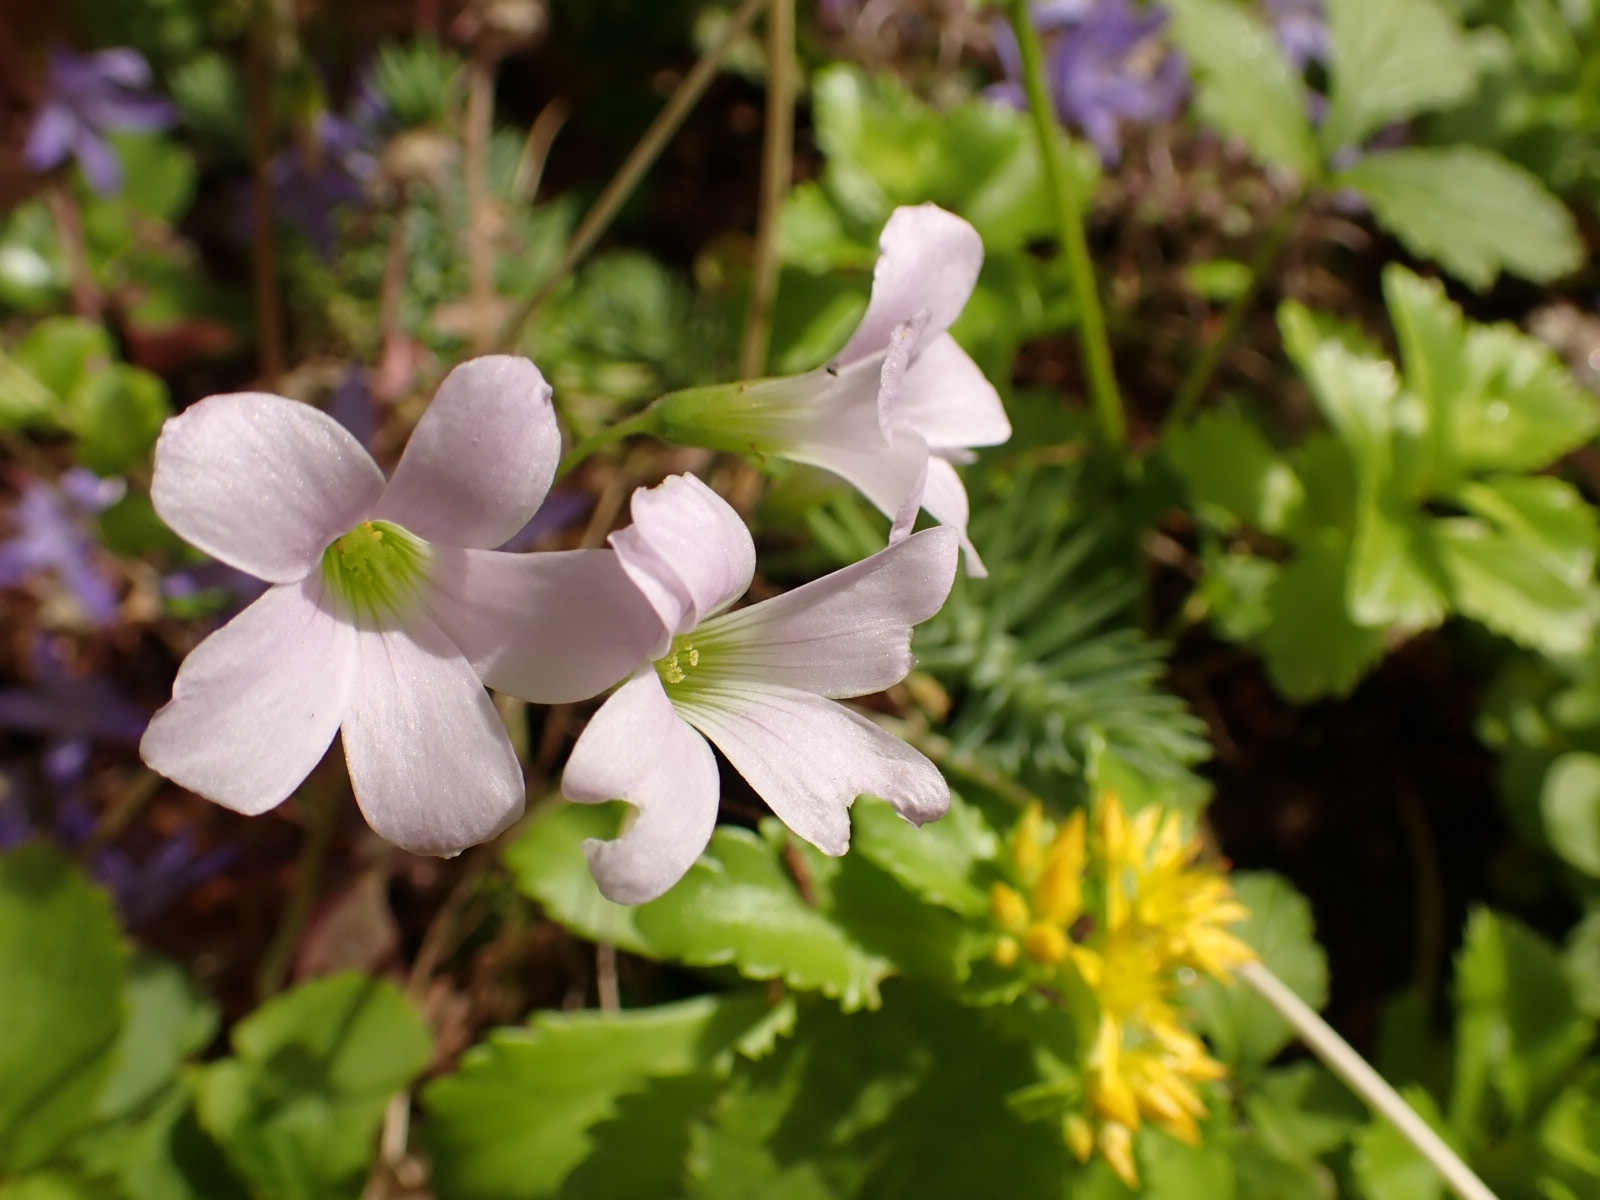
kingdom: Plantae
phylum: Tracheophyta
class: Magnoliopsida
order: Oxalidales
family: Oxalidaceae
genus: Oxalis
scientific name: Oxalis triangularis
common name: Wood sorrel
